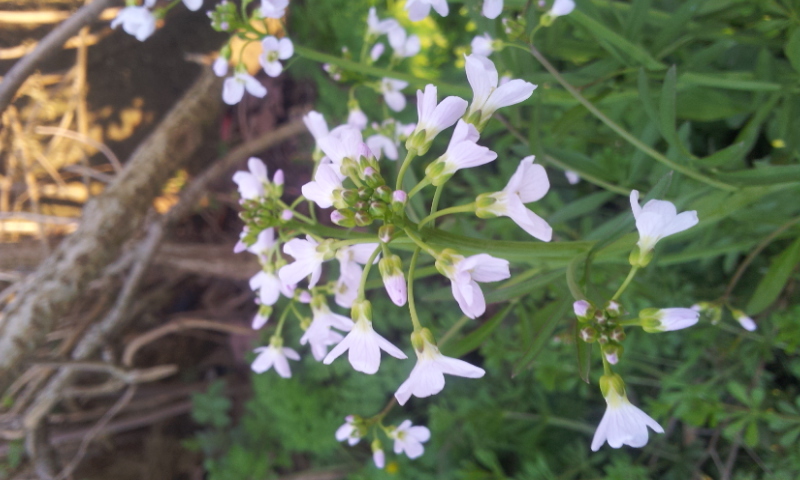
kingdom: Plantae
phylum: Tracheophyta
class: Magnoliopsida
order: Brassicales
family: Brassicaceae
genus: Cardamine
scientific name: Cardamine pratensis
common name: Cuckoo flower
